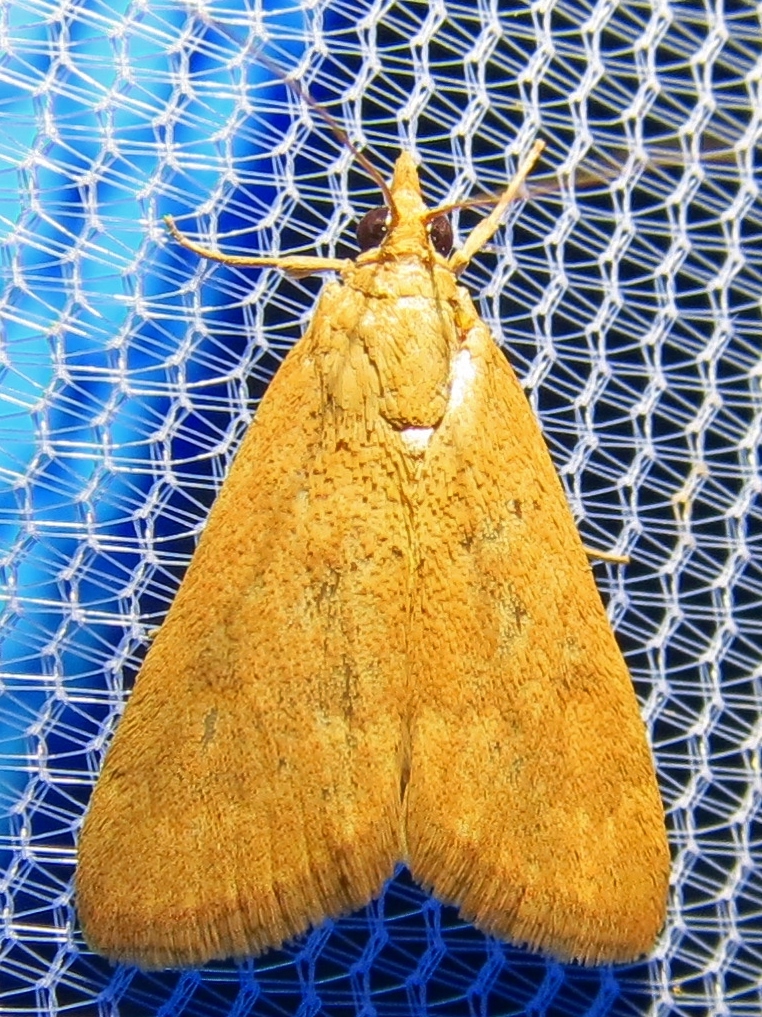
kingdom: Animalia
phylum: Arthropoda
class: Insecta
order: Lepidoptera
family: Crambidae
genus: Achyra
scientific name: Achyra rantalis
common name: Garden webworm
